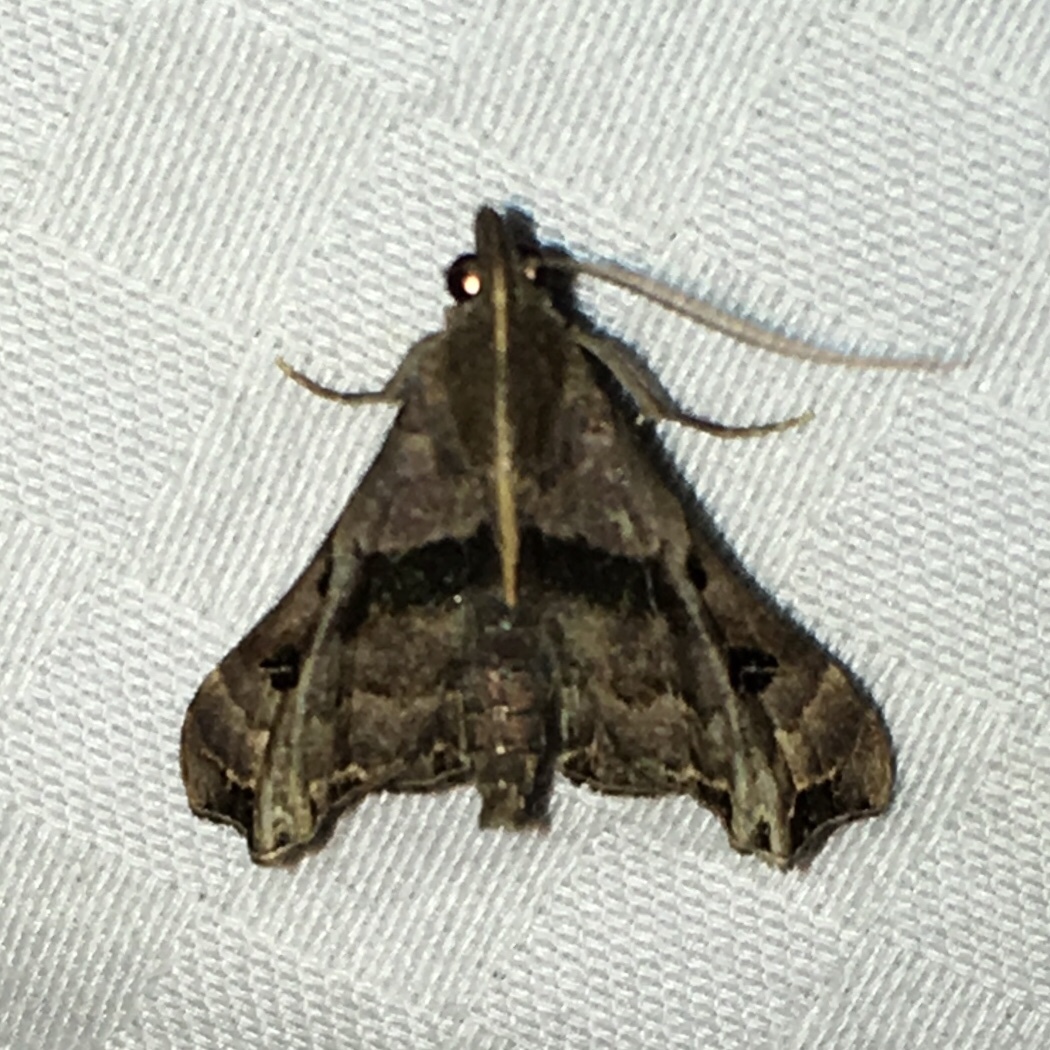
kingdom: Animalia
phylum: Arthropoda
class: Insecta
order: Lepidoptera
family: Erebidae
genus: Palthis
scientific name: Palthis asopialis
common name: Faint-spotted palthis moth
